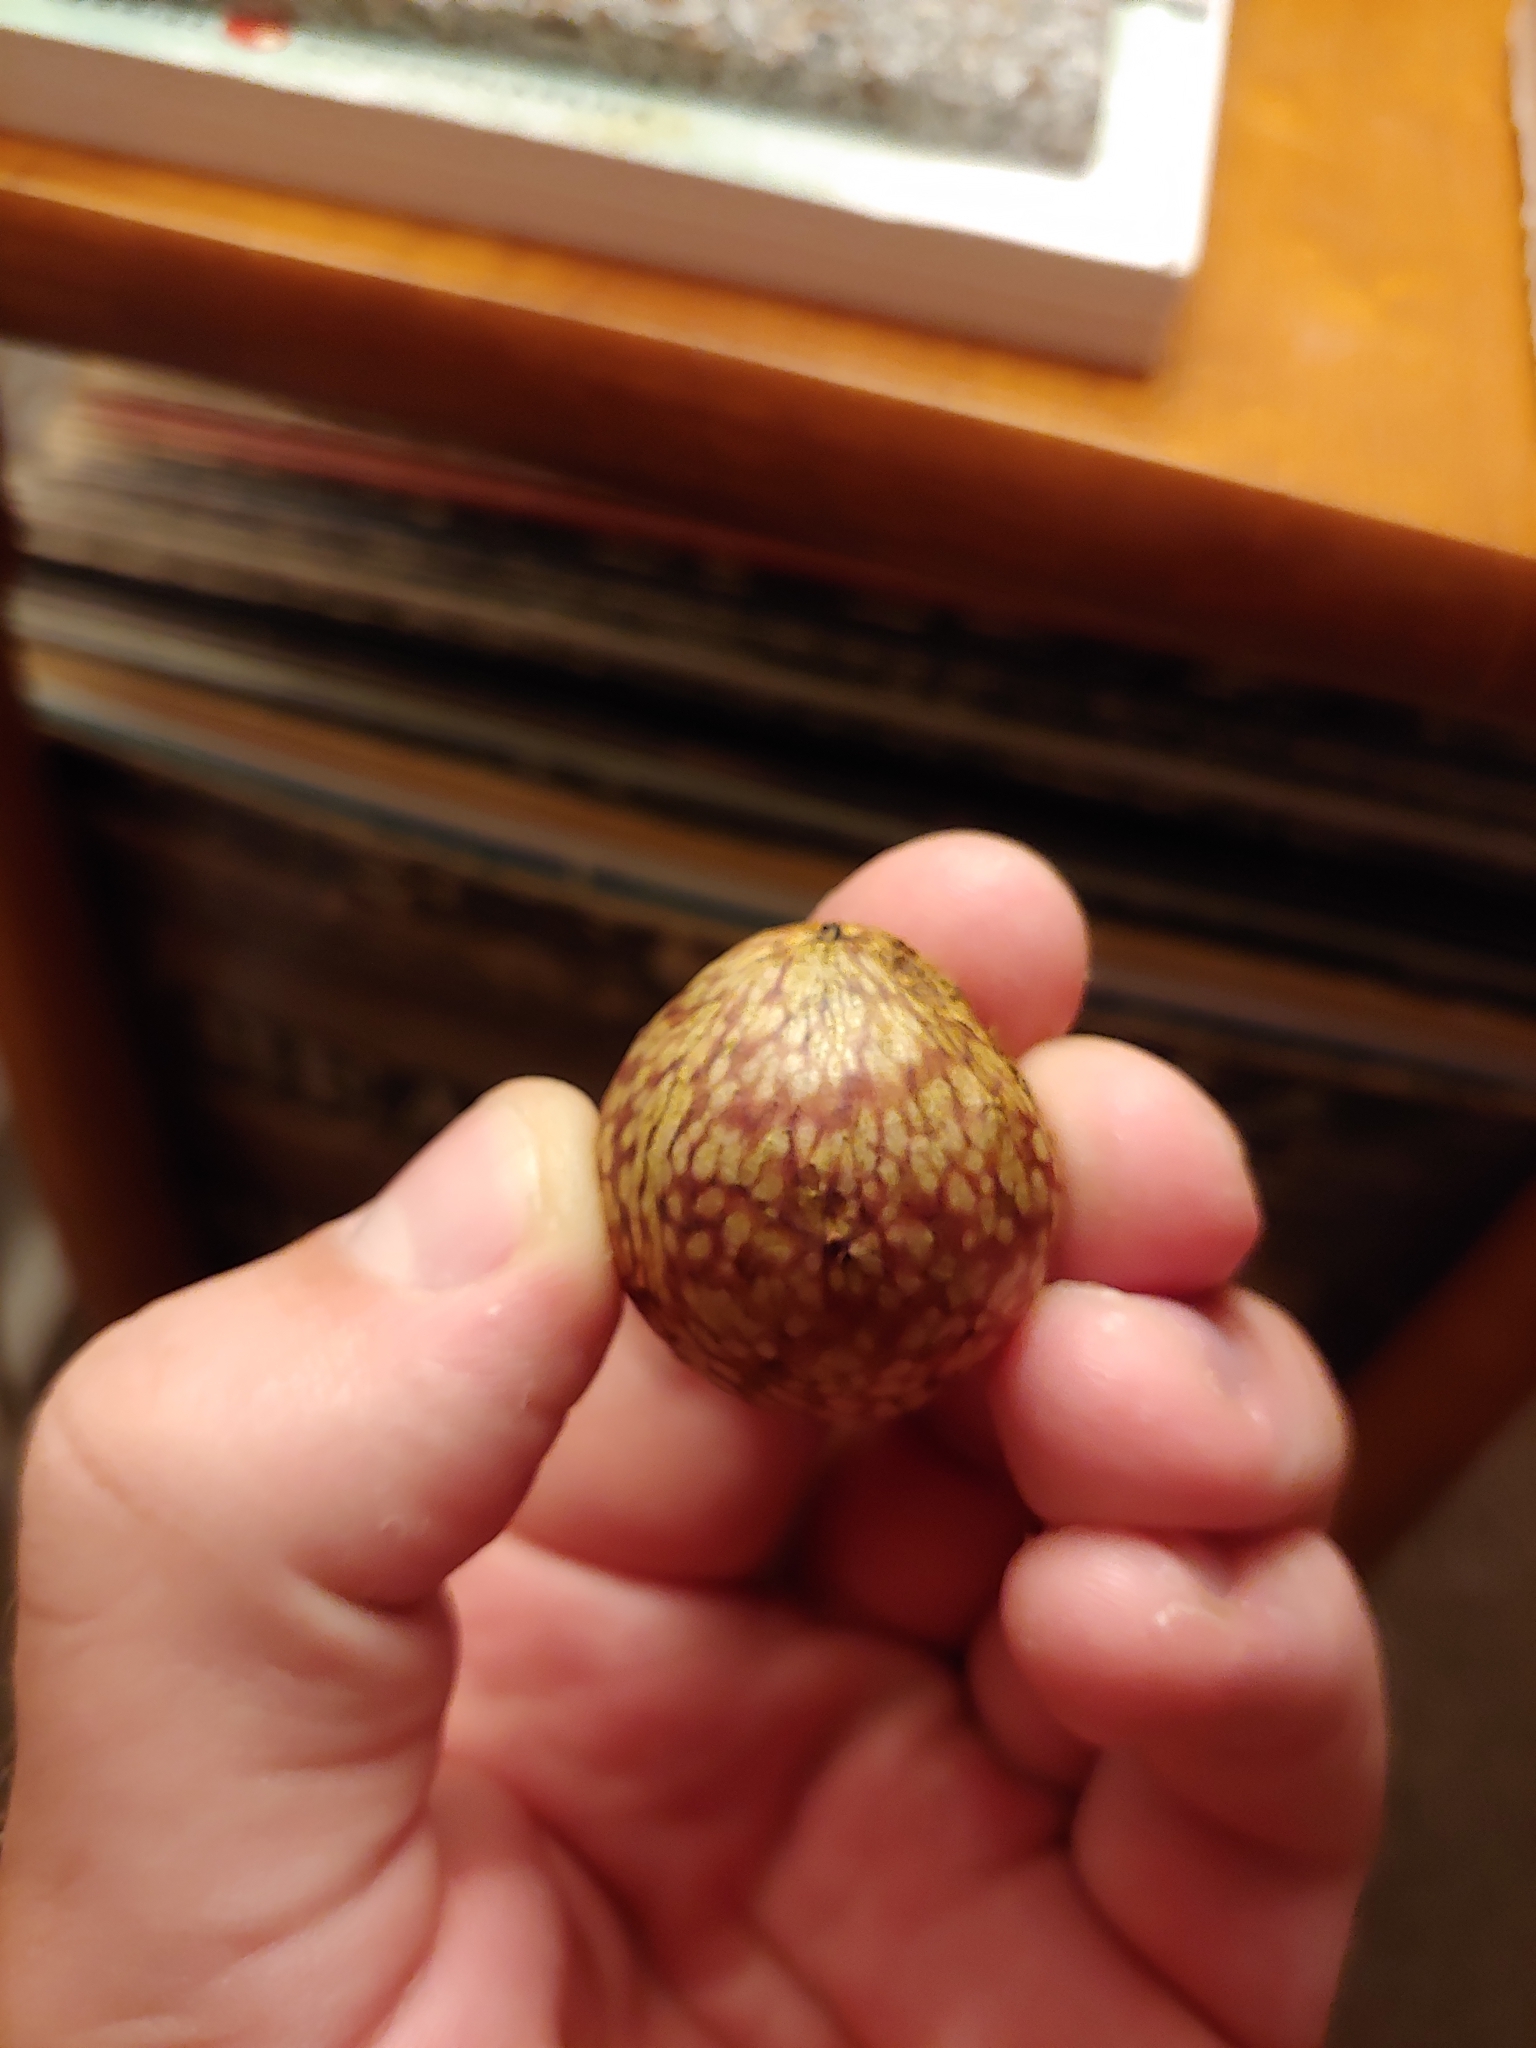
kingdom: Animalia
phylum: Arthropoda
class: Insecta
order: Hymenoptera
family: Cynipidae
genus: Amphibolips
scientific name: Amphibolips
